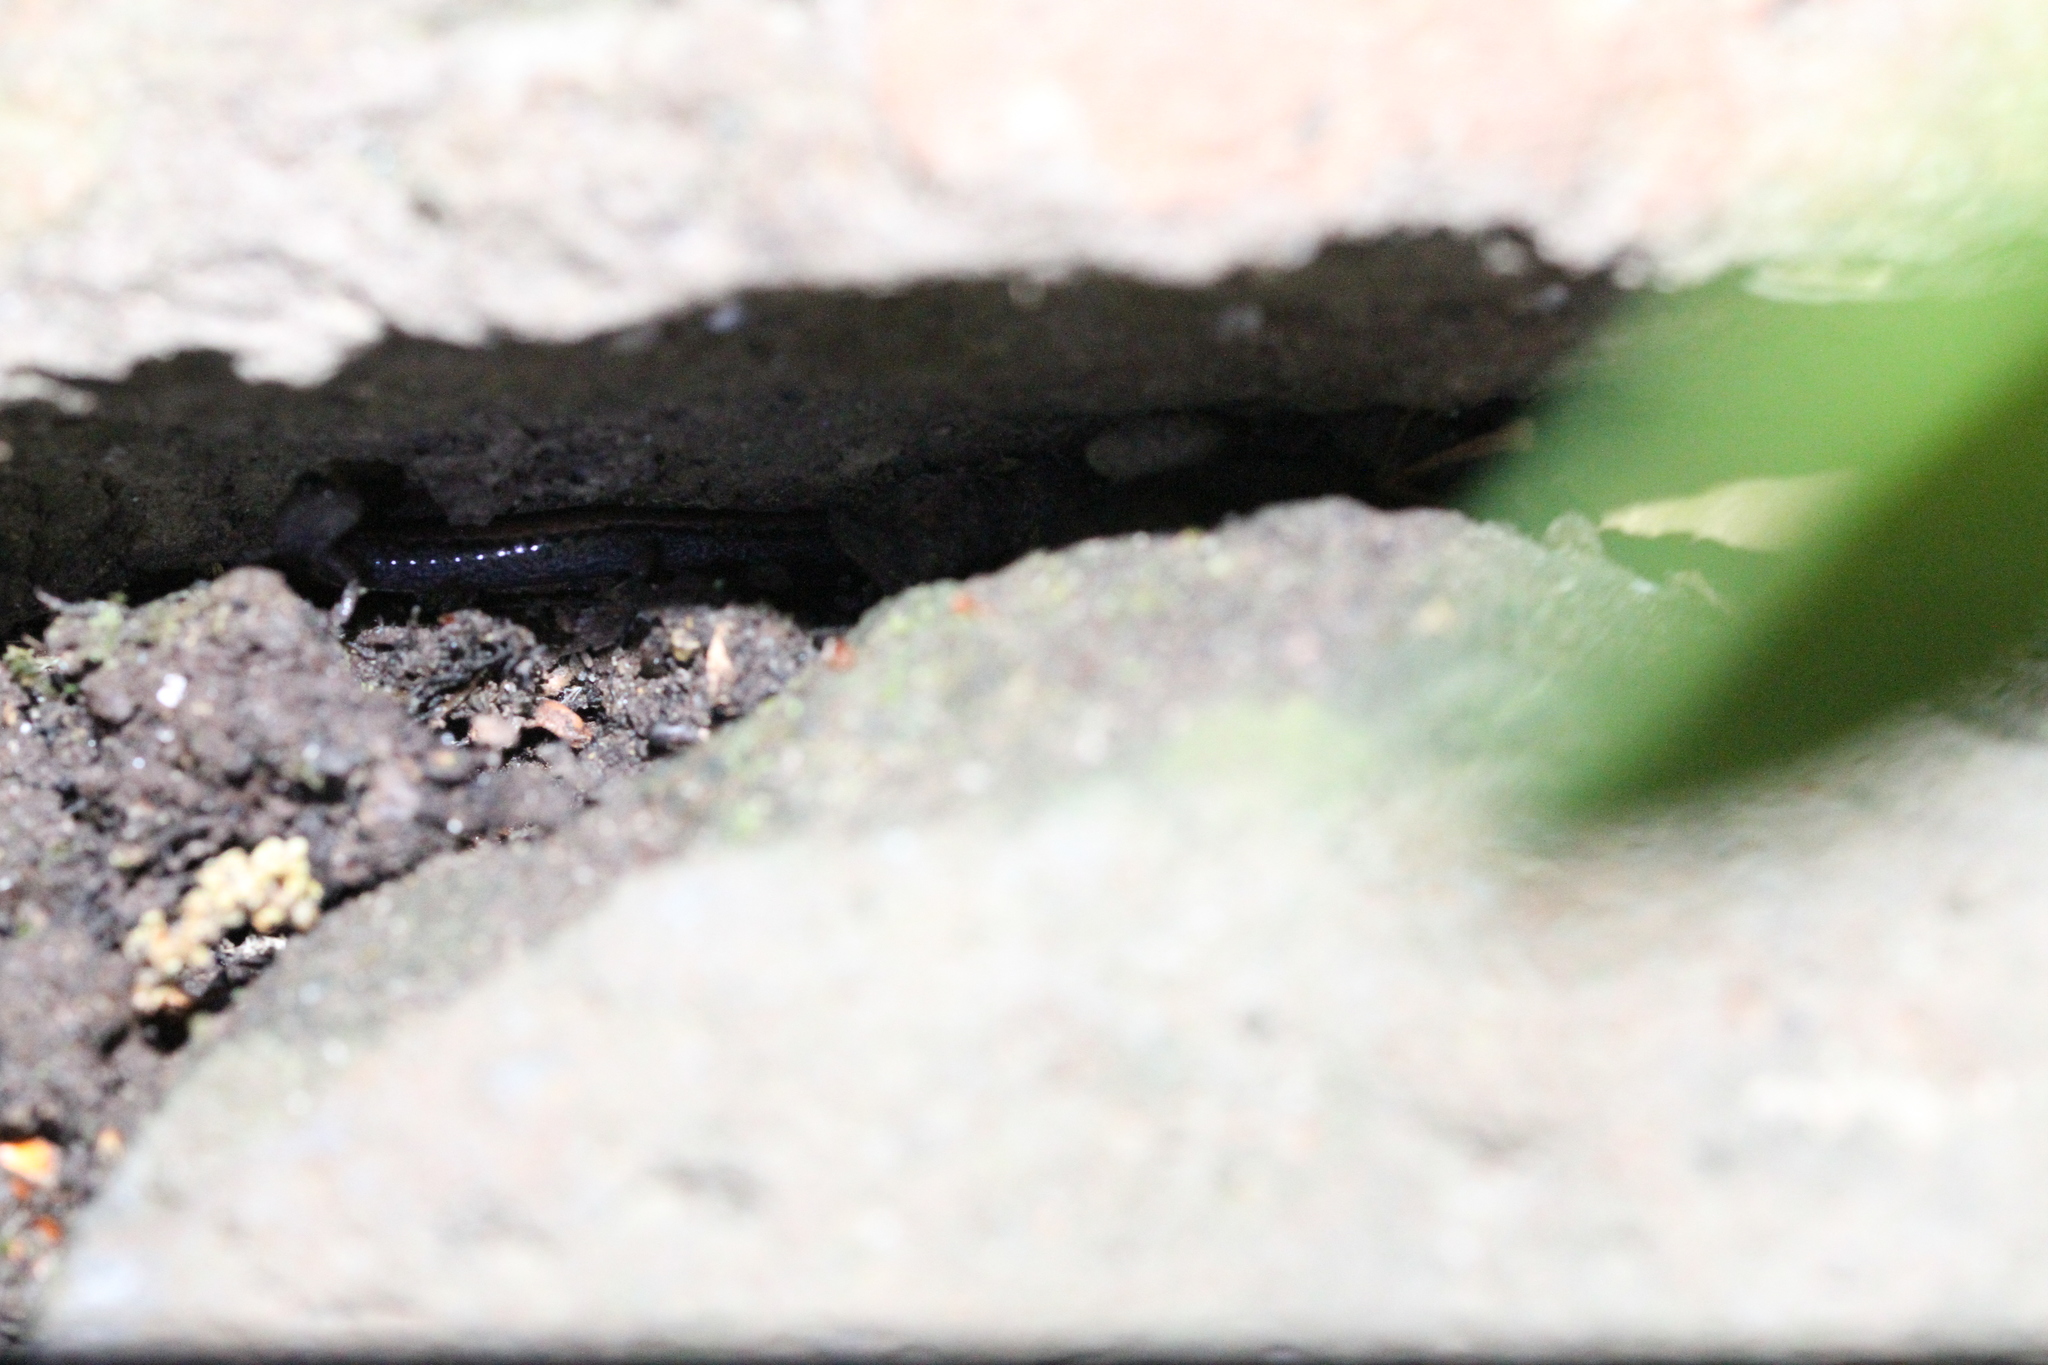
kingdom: Animalia
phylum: Chordata
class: Amphibia
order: Caudata
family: Plethodontidae
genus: Batrachoseps
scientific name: Batrachoseps attenuatus
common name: California slender salamander
